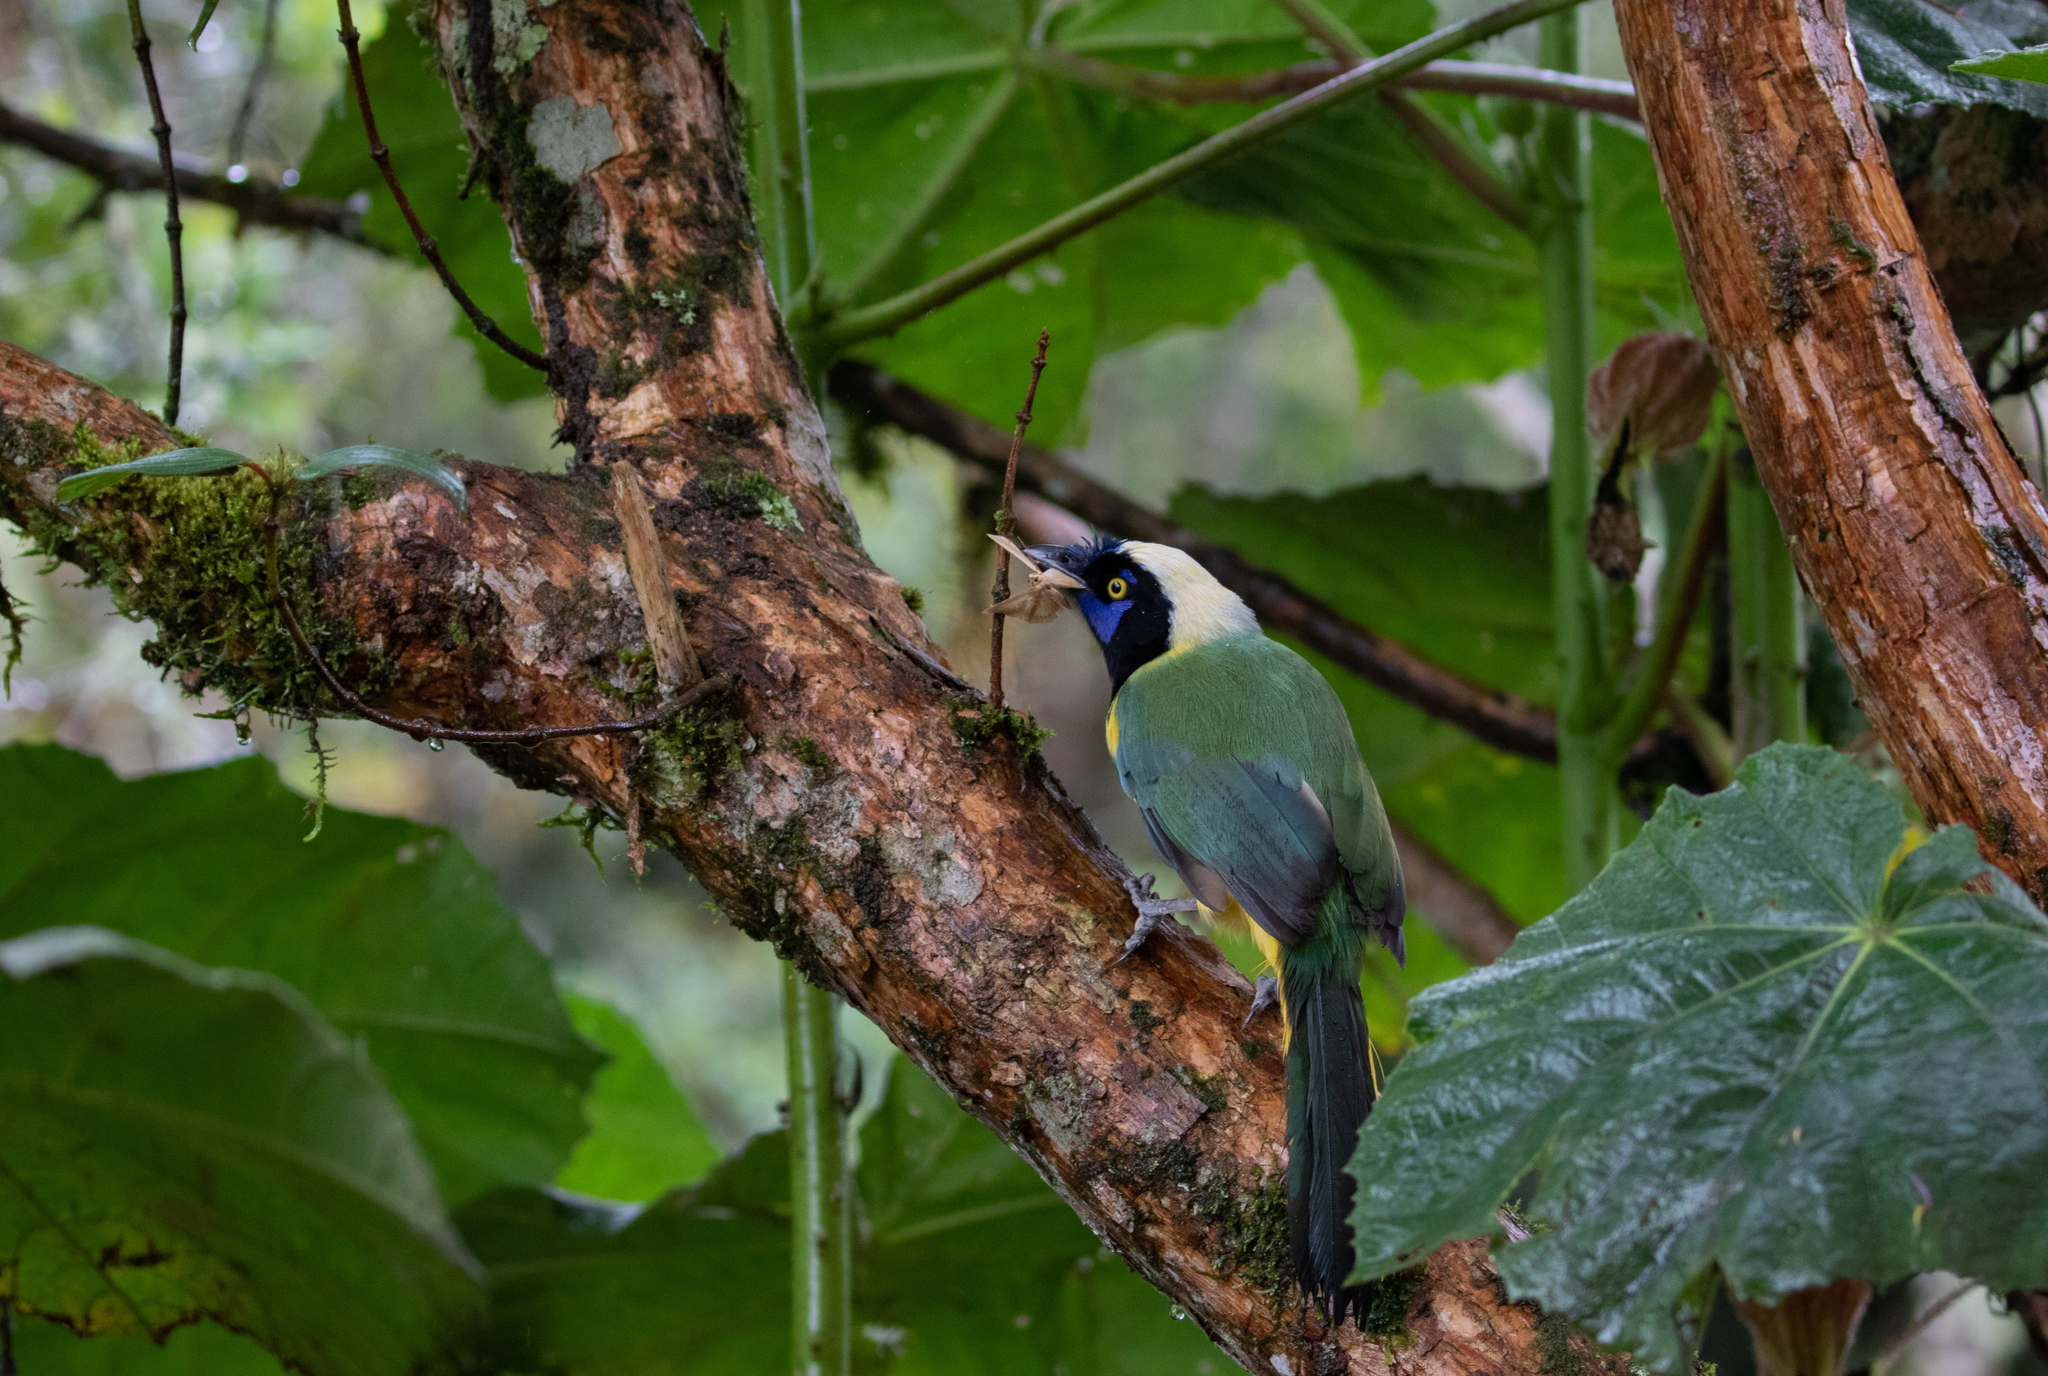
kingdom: Animalia
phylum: Chordata
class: Aves
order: Passeriformes
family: Corvidae
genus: Cyanocorax
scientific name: Cyanocorax yncas
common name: Green jay
